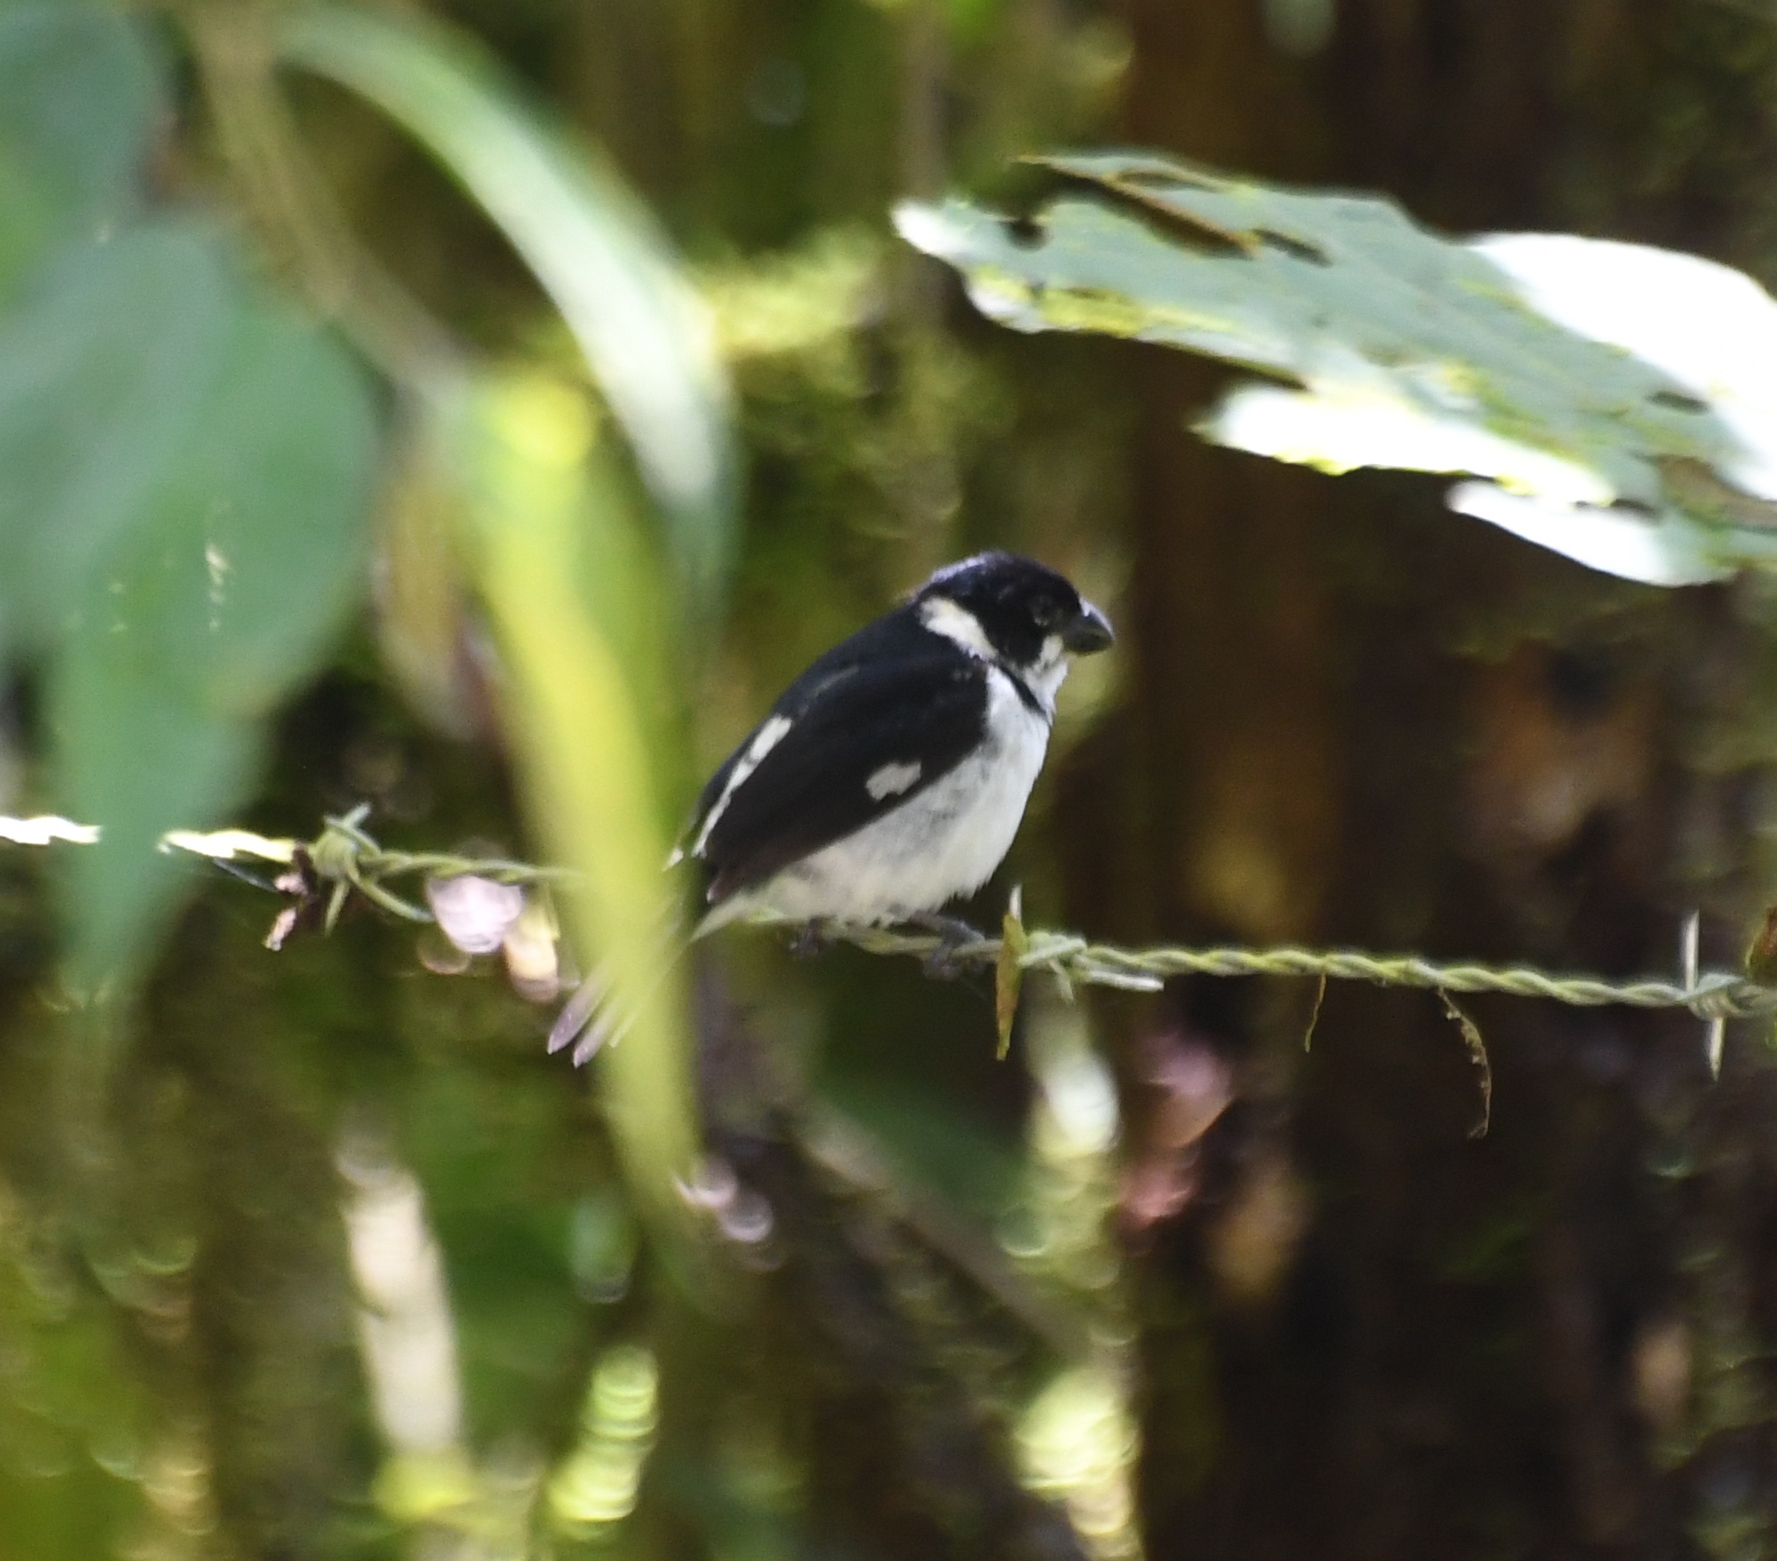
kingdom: Animalia
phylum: Chordata
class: Aves
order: Passeriformes
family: Thraupidae
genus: Sporophila
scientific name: Sporophila corvina
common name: Variable seedeater
